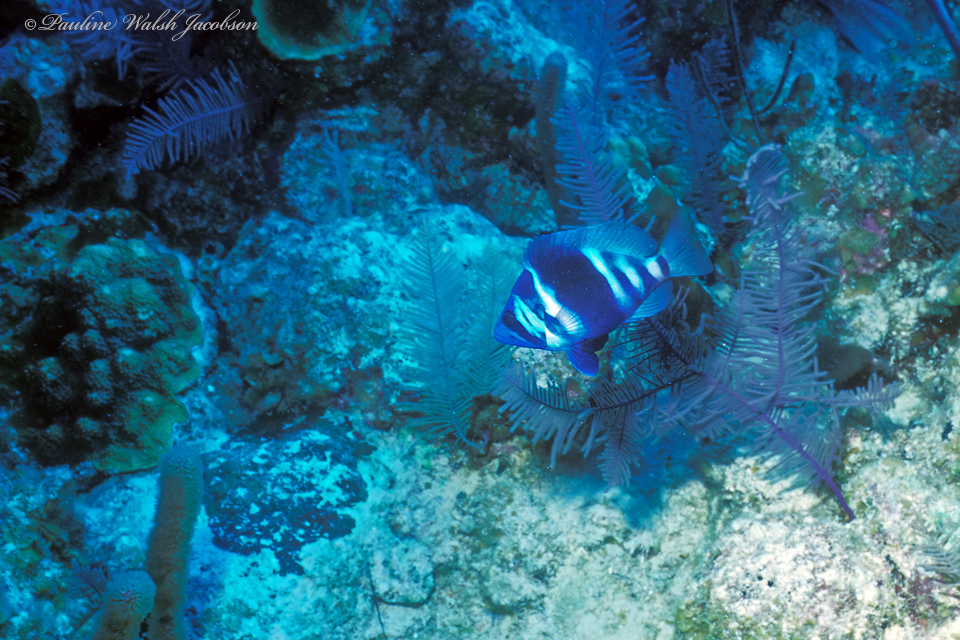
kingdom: Animalia
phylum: Chordata
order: Perciformes
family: Serranidae
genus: Hypoplectrus
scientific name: Hypoplectrus indigo
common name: Indigo hamlet
